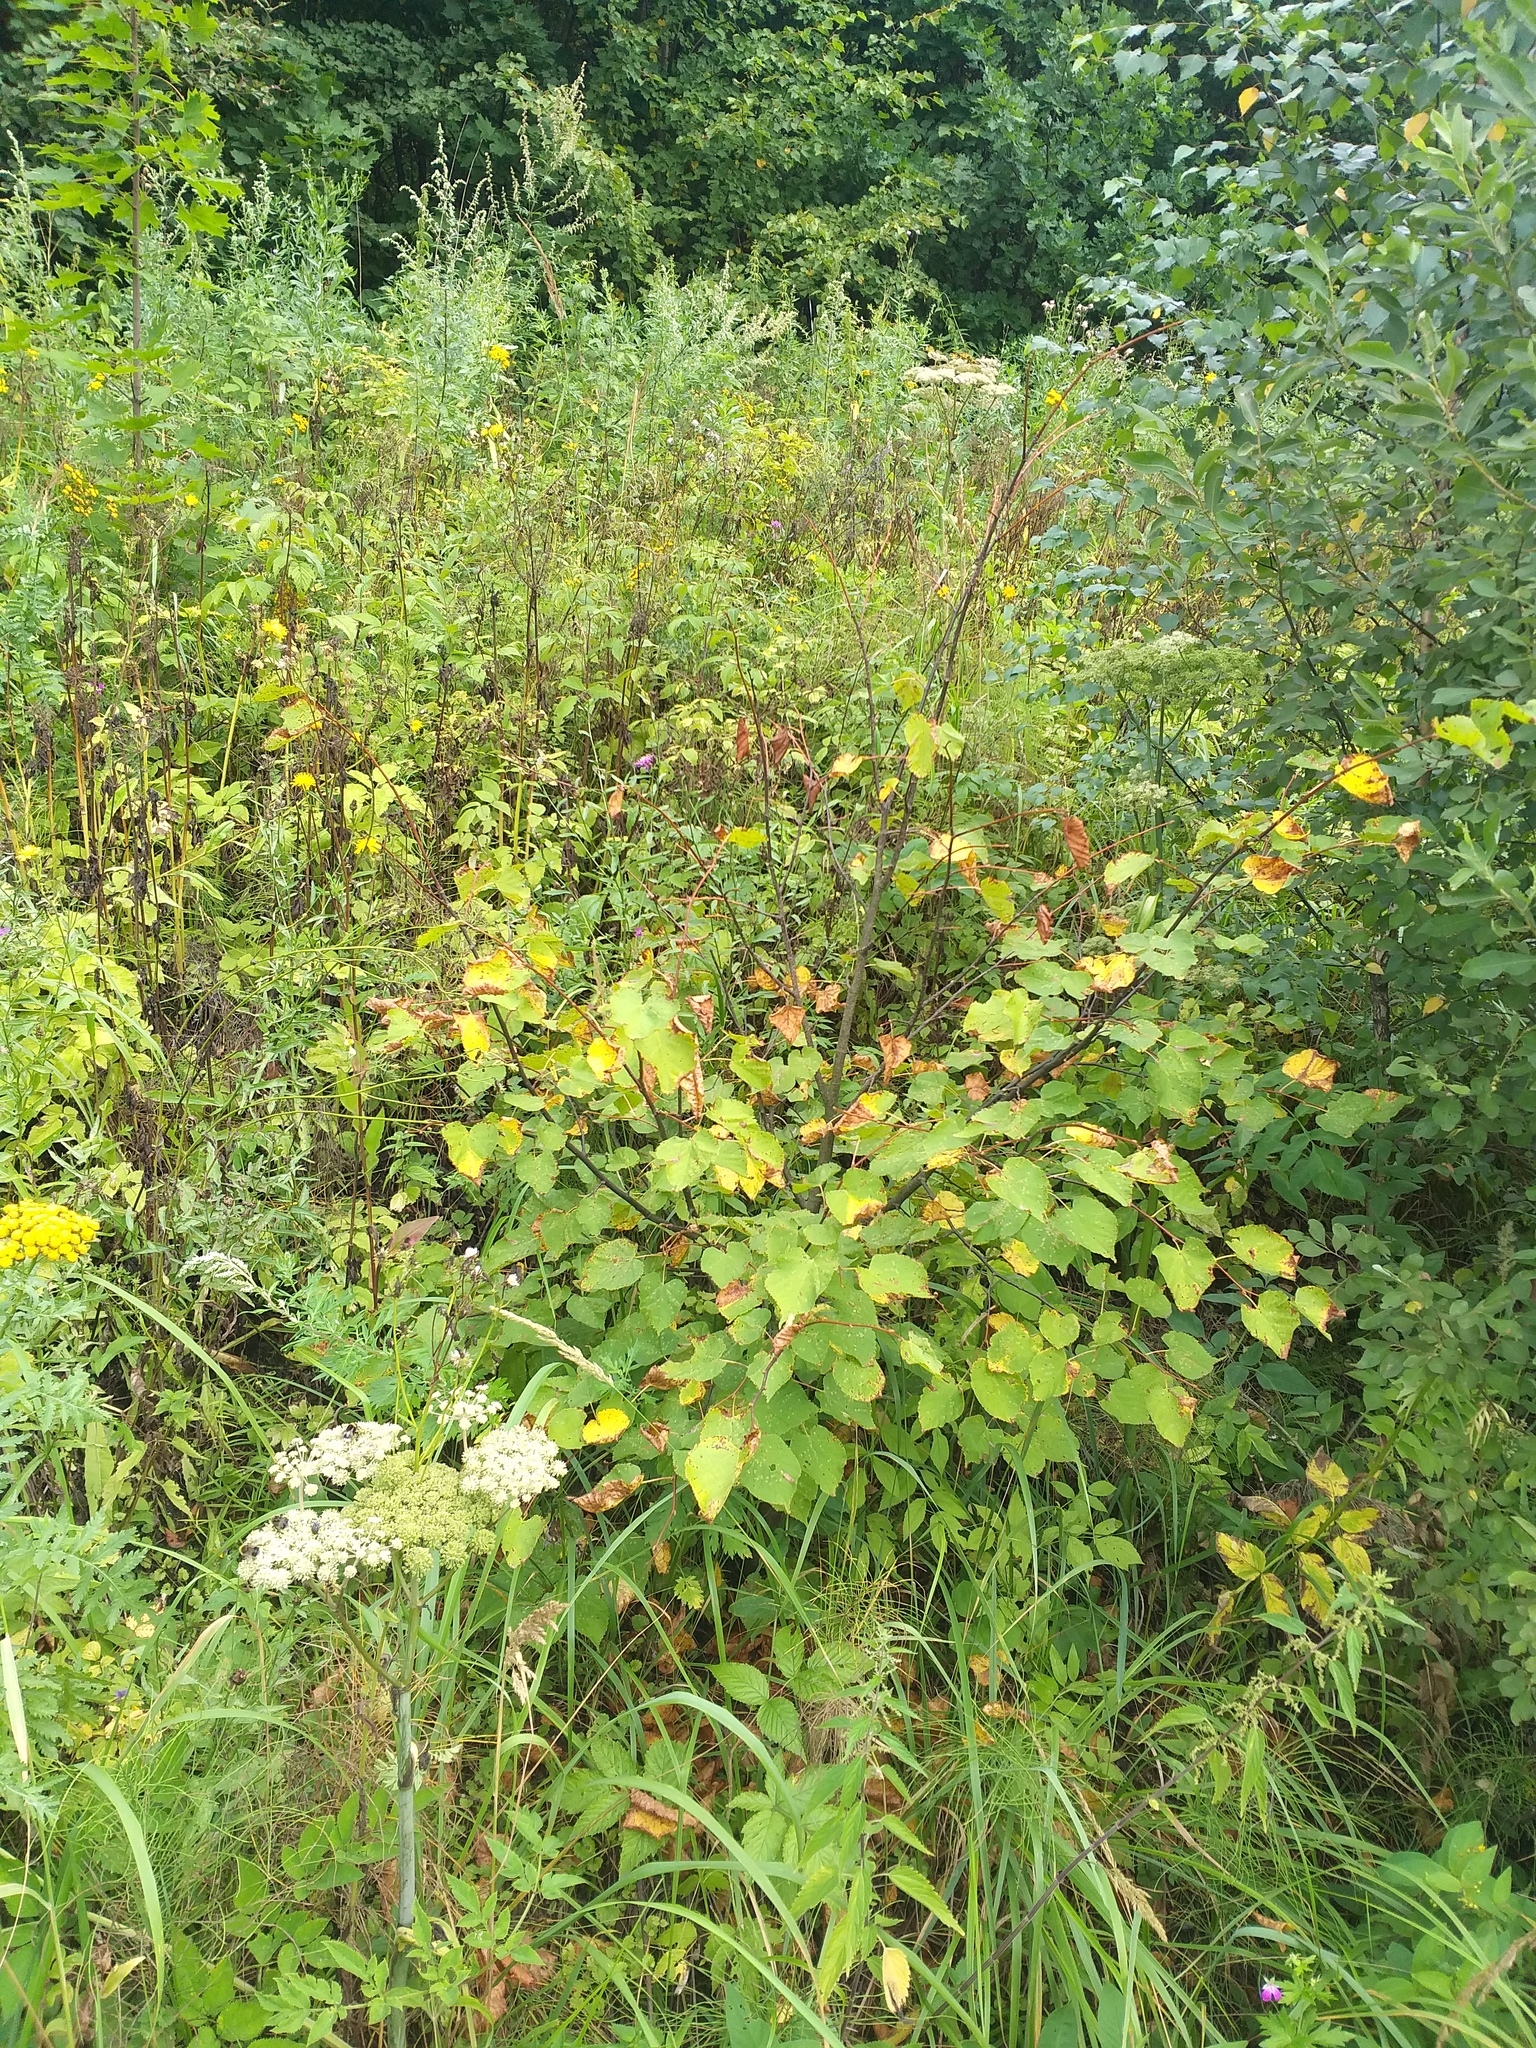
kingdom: Plantae
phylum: Tracheophyta
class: Magnoliopsida
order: Malvales
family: Malvaceae
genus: Tilia
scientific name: Tilia cordata
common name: Small-leaved lime
